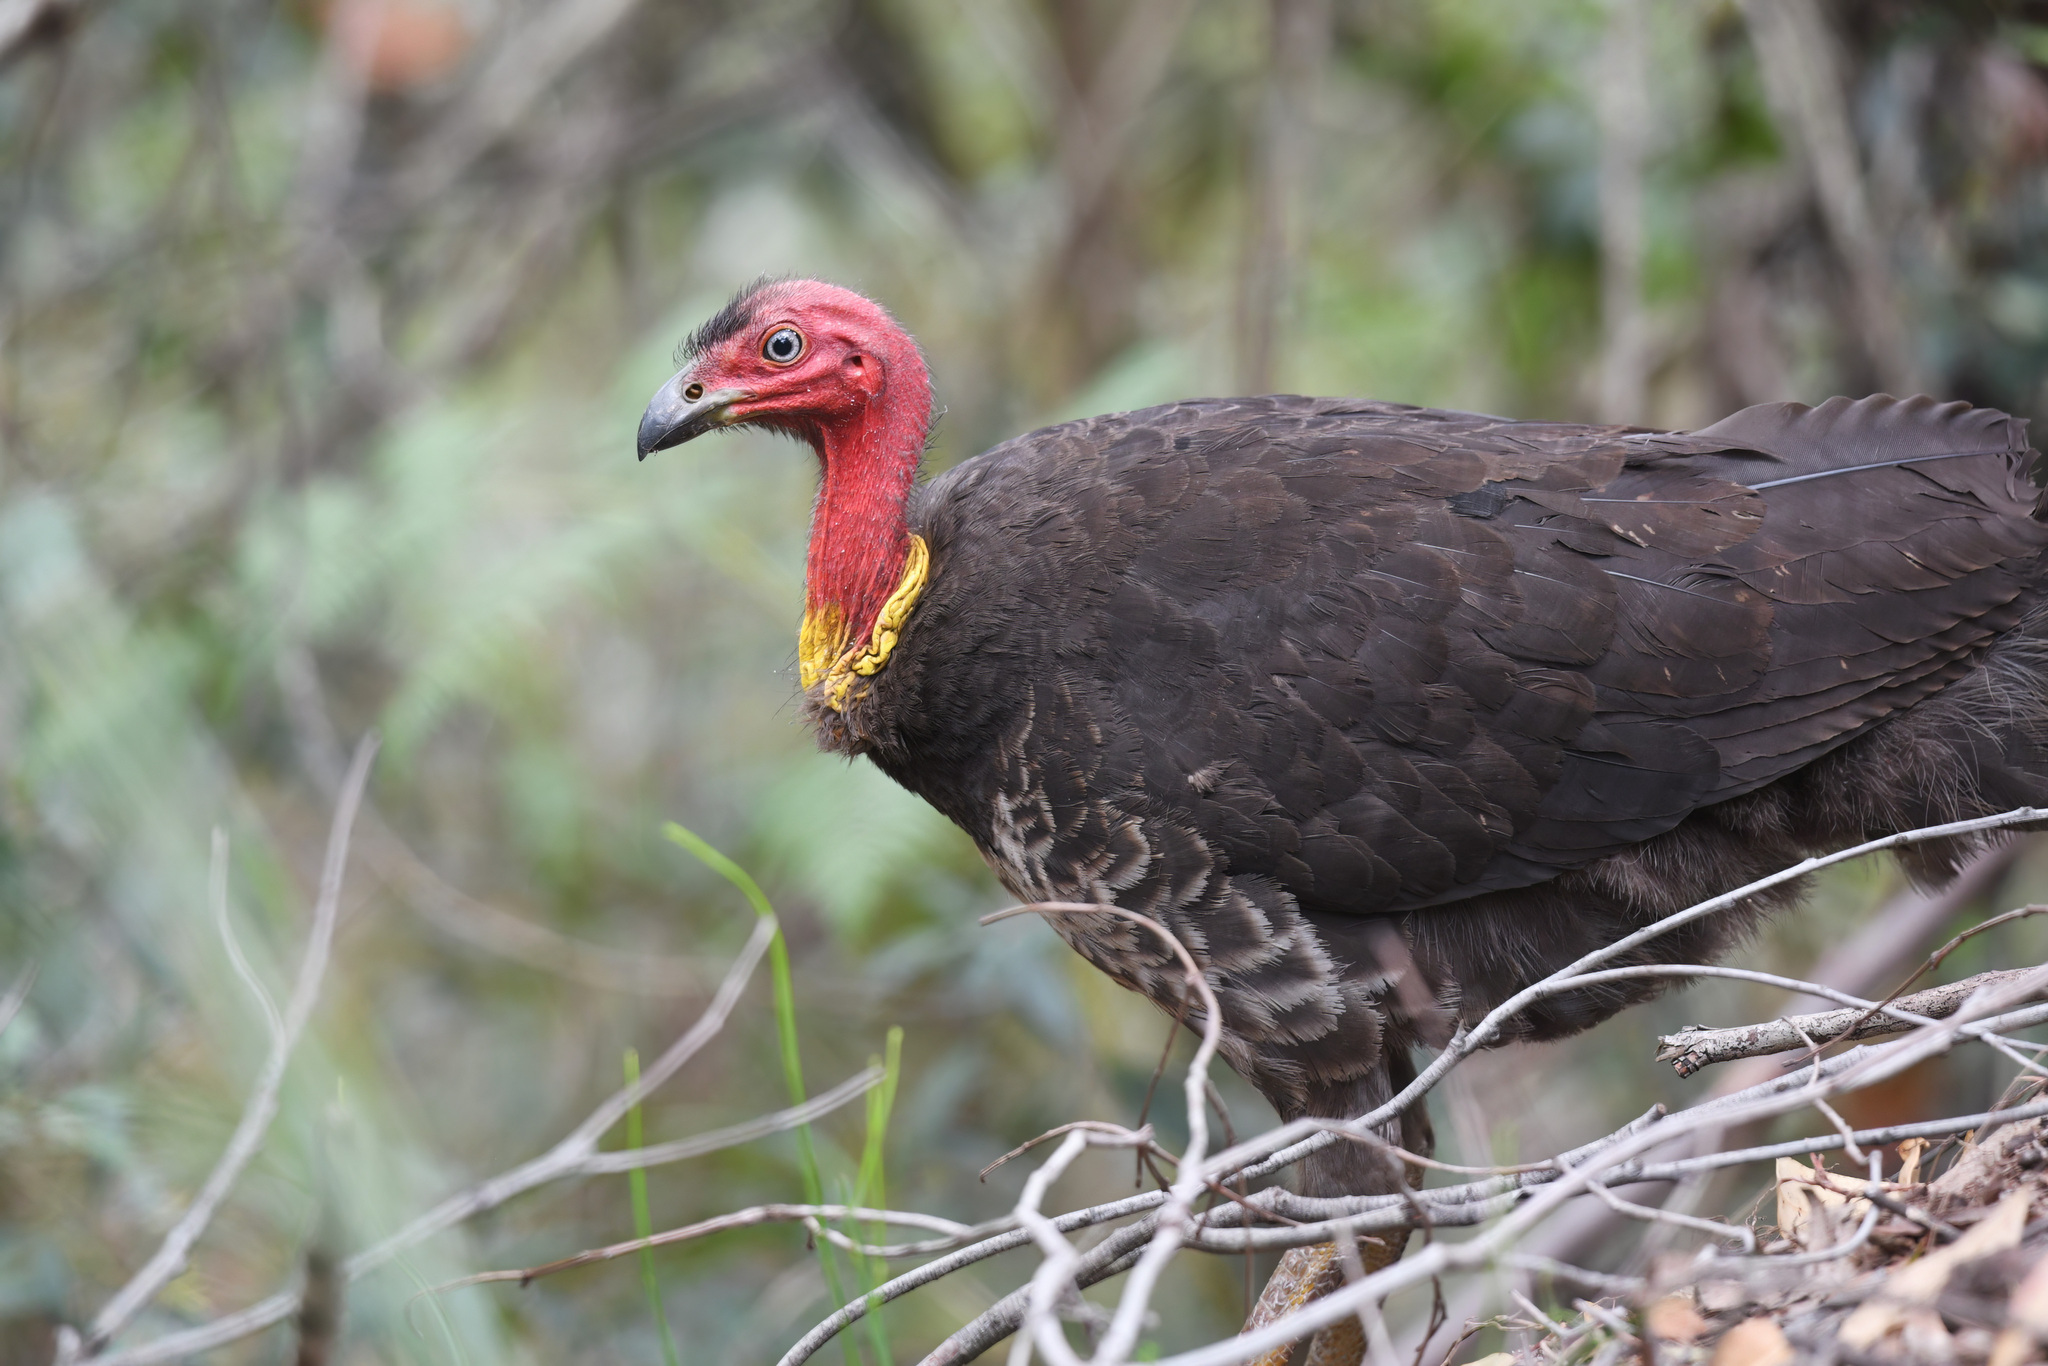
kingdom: Animalia
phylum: Chordata
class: Aves
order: Galliformes
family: Megapodiidae
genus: Alectura
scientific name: Alectura lathami
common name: Australian brushturkey
